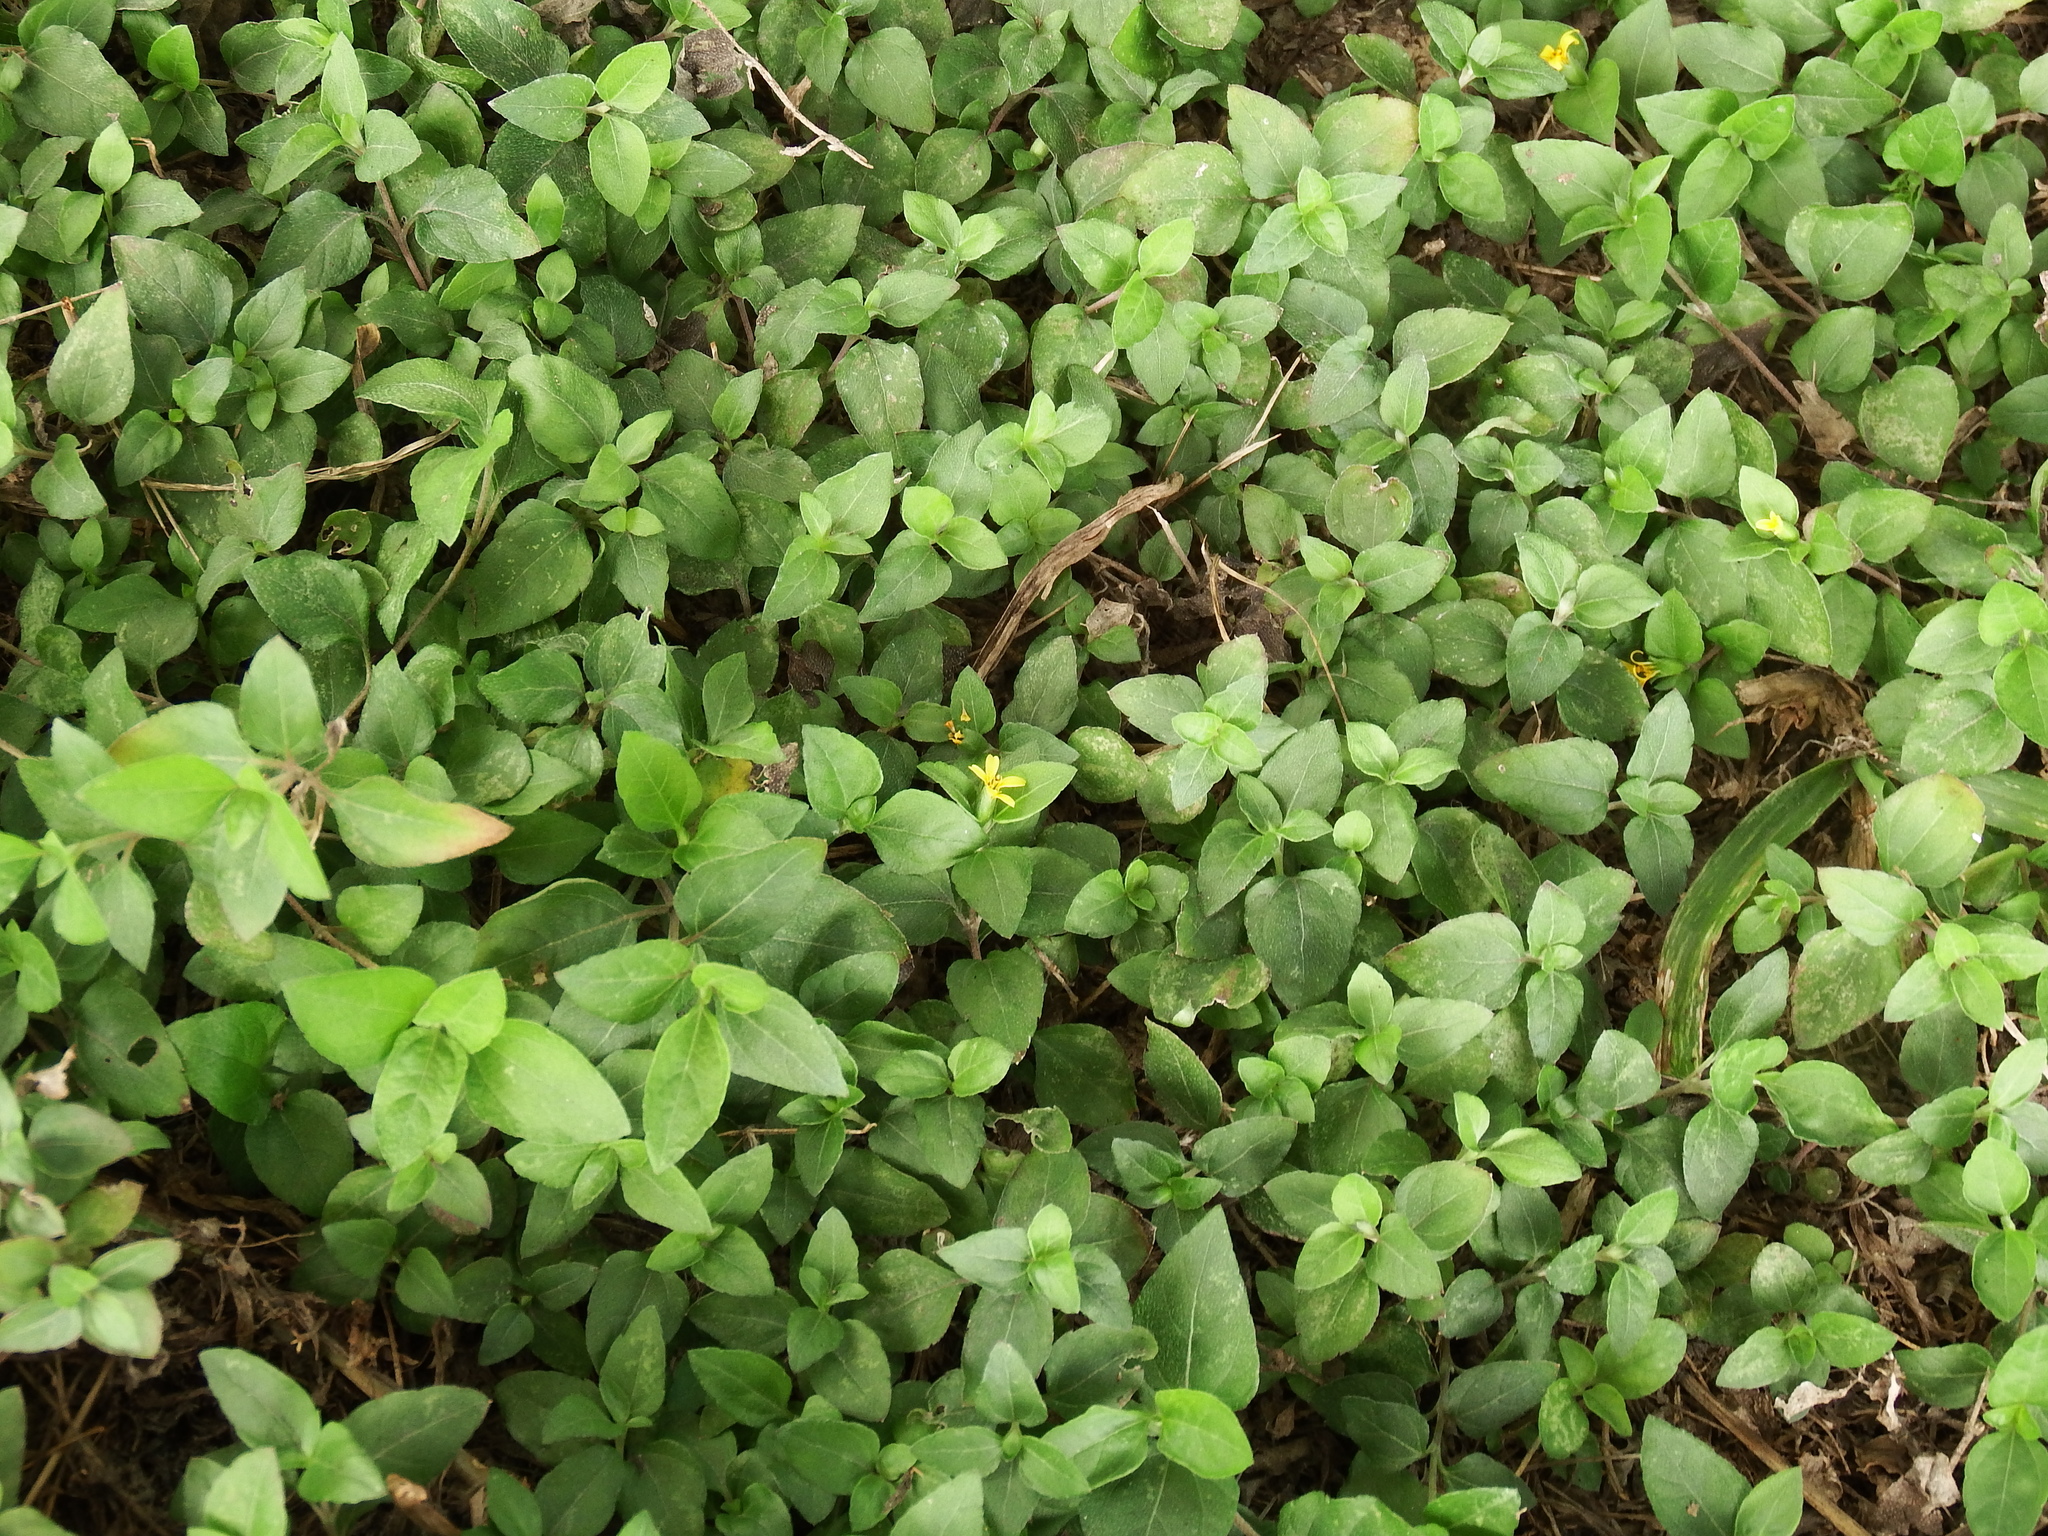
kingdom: Plantae
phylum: Tracheophyta
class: Magnoliopsida
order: Asterales
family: Asteraceae
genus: Calyptocarpus
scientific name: Calyptocarpus vialis
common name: Straggler daisy
